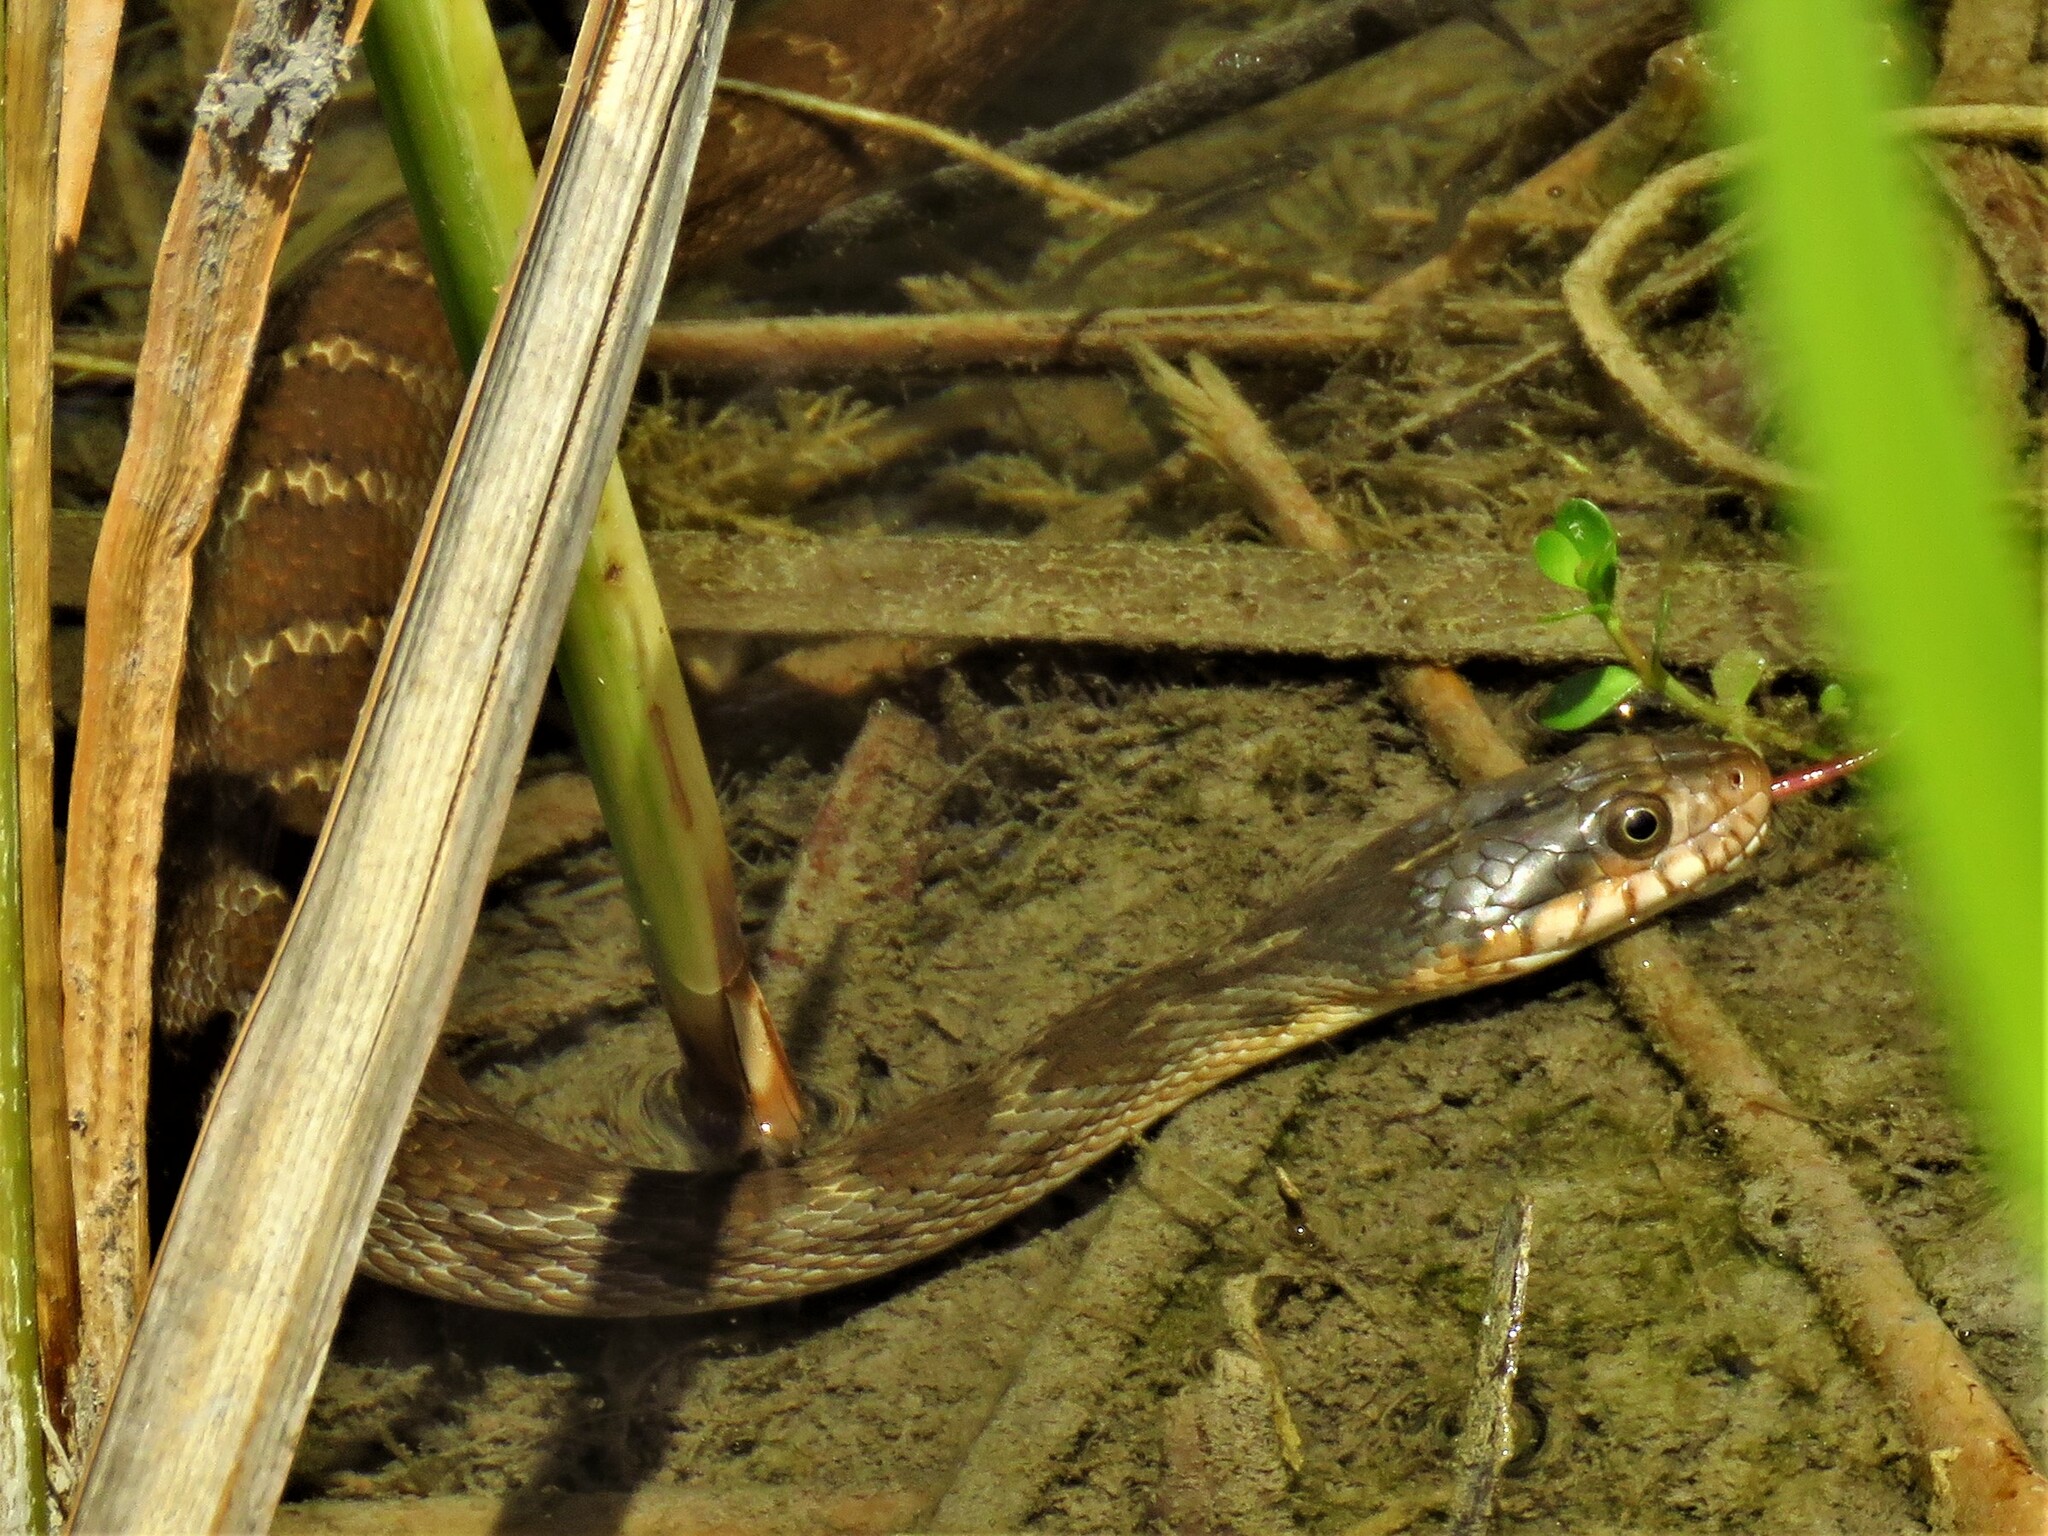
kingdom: Animalia
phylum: Chordata
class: Squamata
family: Colubridae
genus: Nerodia
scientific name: Nerodia erythrogaster
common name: Plainbelly water snake
